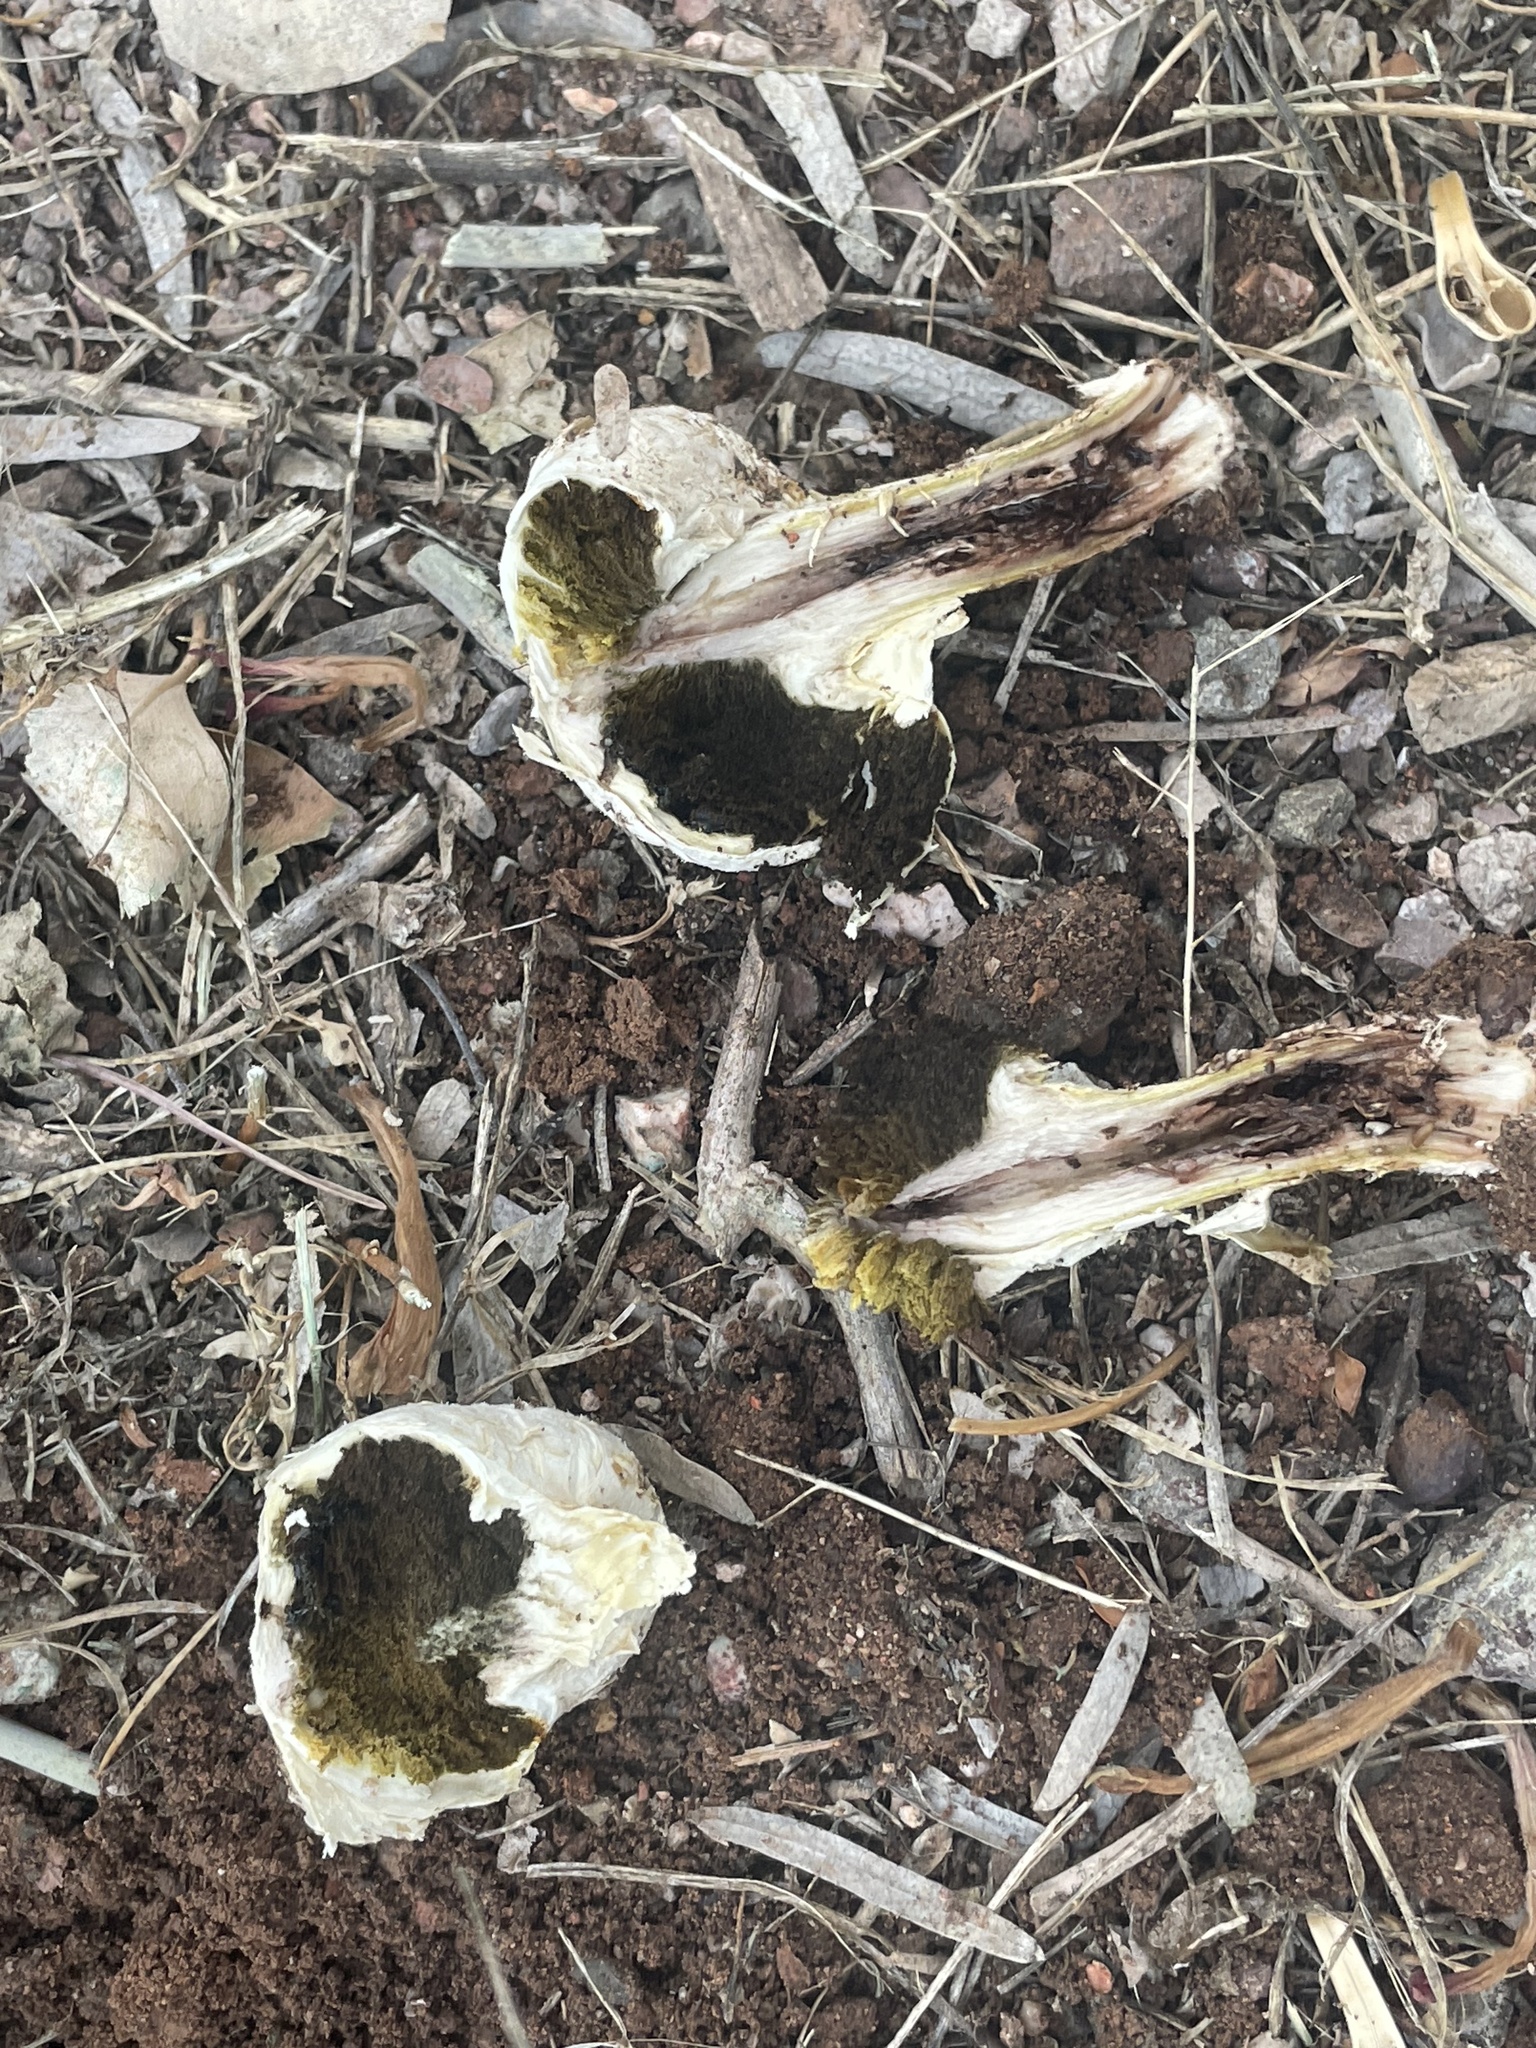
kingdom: Fungi
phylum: Basidiomycota
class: Agaricomycetes
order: Agaricales
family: Agaricaceae
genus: Agaricus
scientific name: Agaricus evertens
